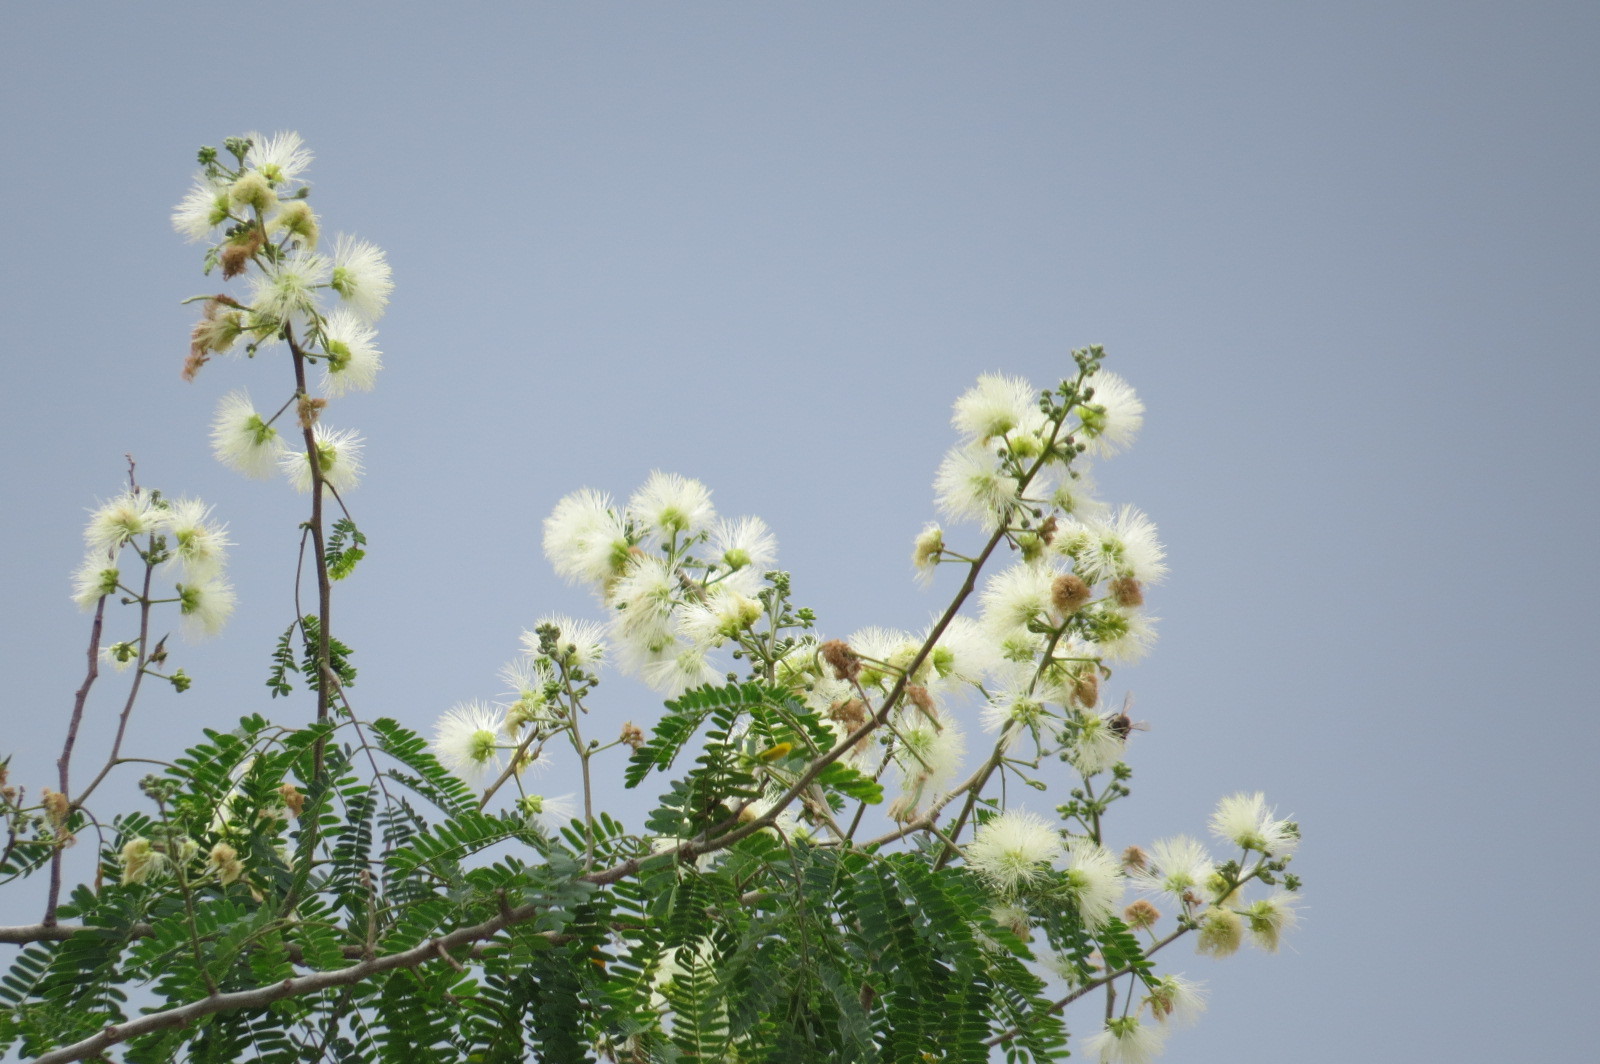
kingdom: Plantae
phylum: Tracheophyta
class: Magnoliopsida
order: Fabales
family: Fabaceae
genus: Havardia
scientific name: Havardia pallens
